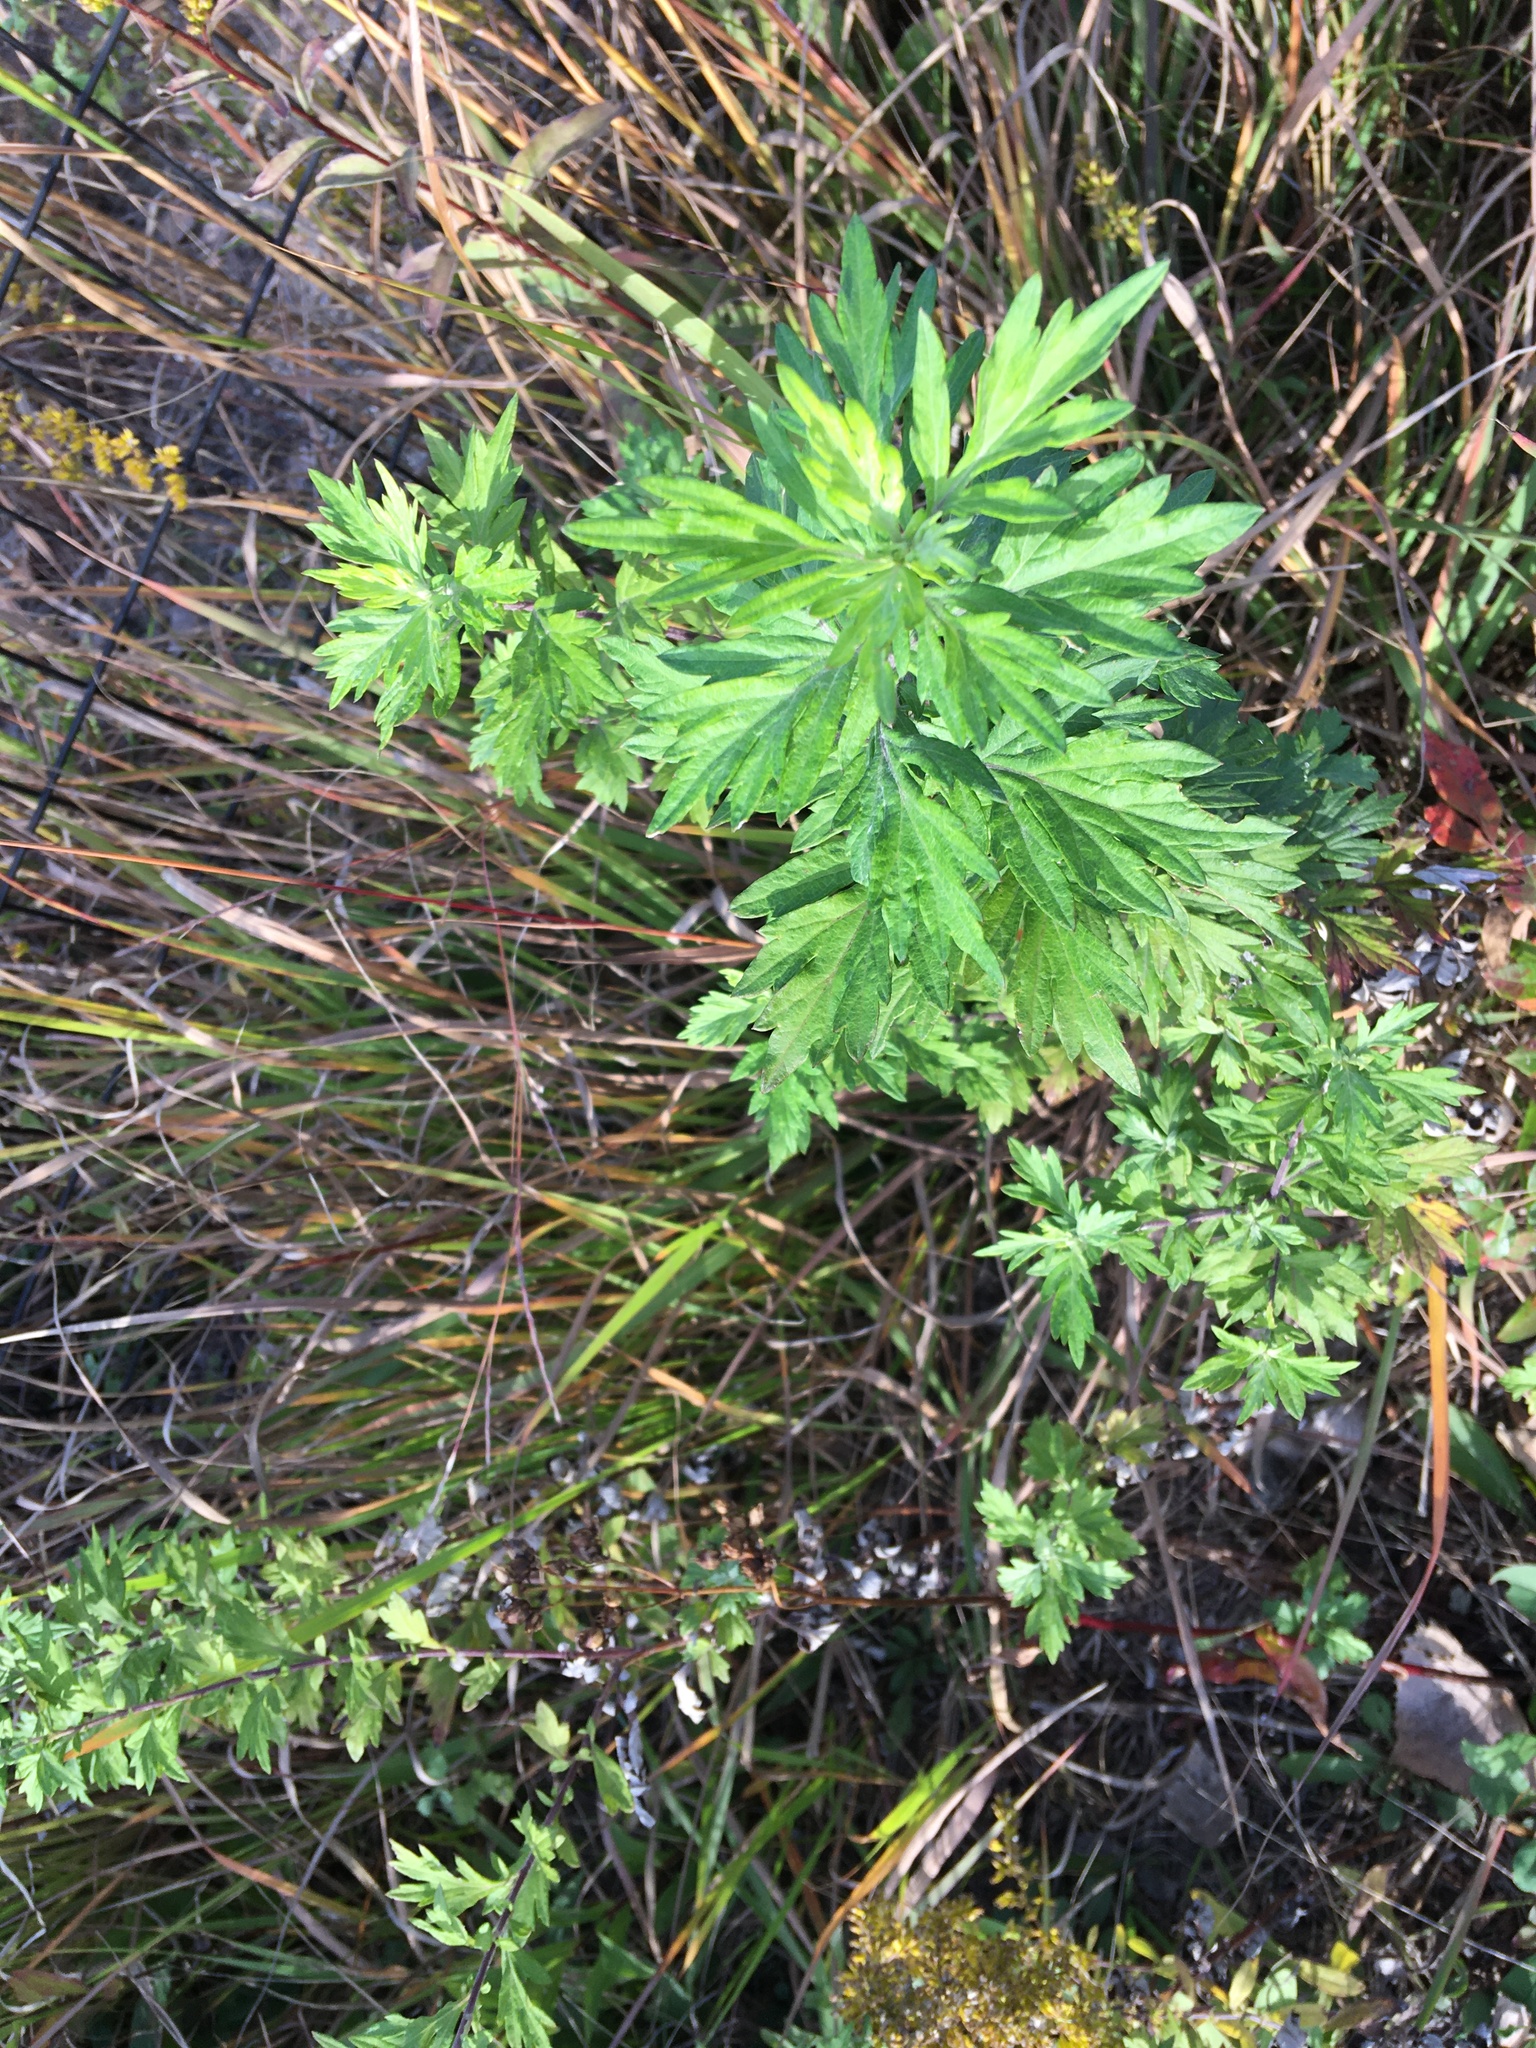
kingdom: Plantae
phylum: Tracheophyta
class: Magnoliopsida
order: Asterales
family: Asteraceae
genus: Artemisia
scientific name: Artemisia vulgaris
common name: Mugwort
